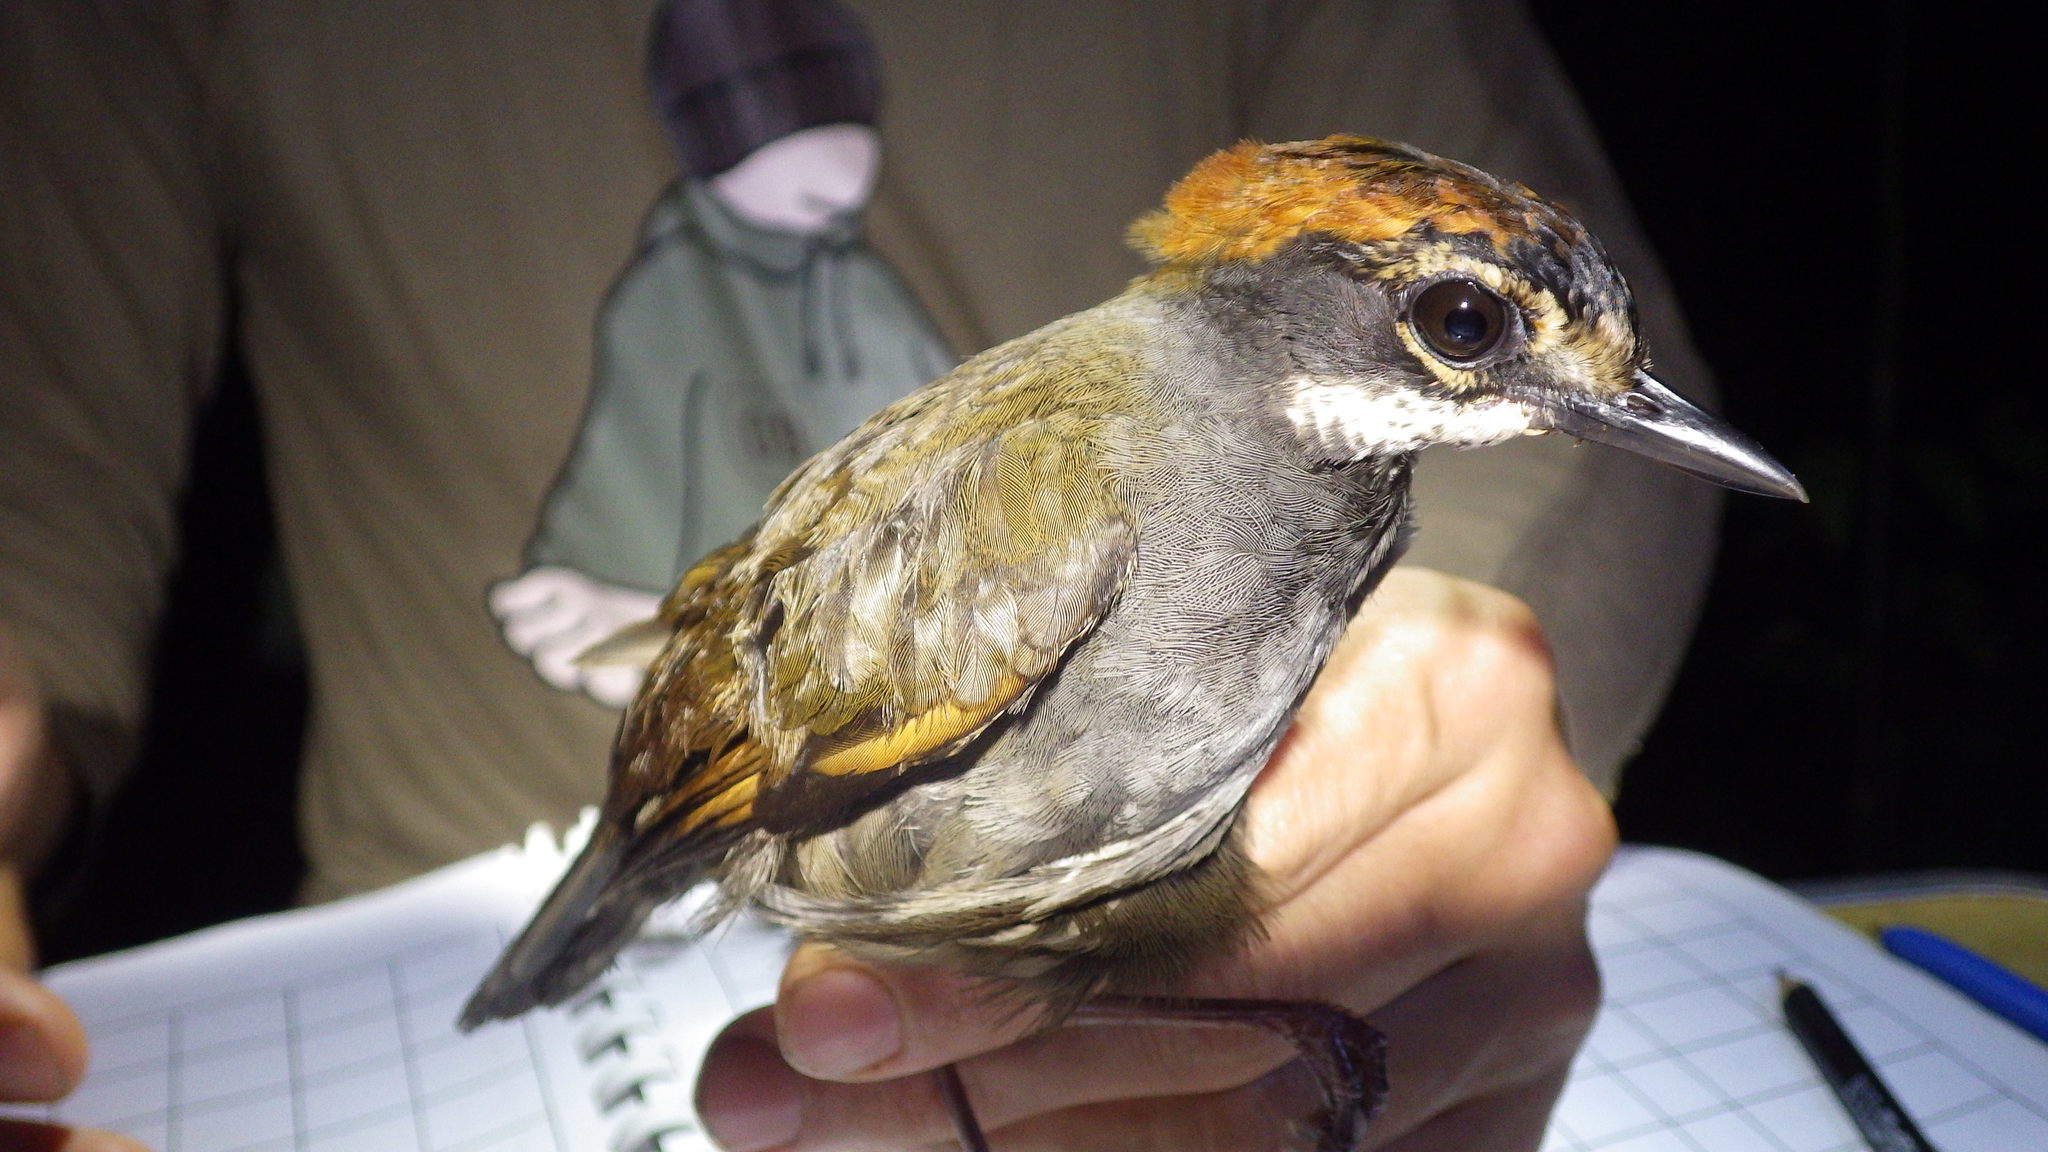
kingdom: Animalia
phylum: Chordata
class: Aves
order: Passeriformes
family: Formicariidae
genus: Formicarius
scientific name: Formicarius colma
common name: Rufous-capped antthrush
